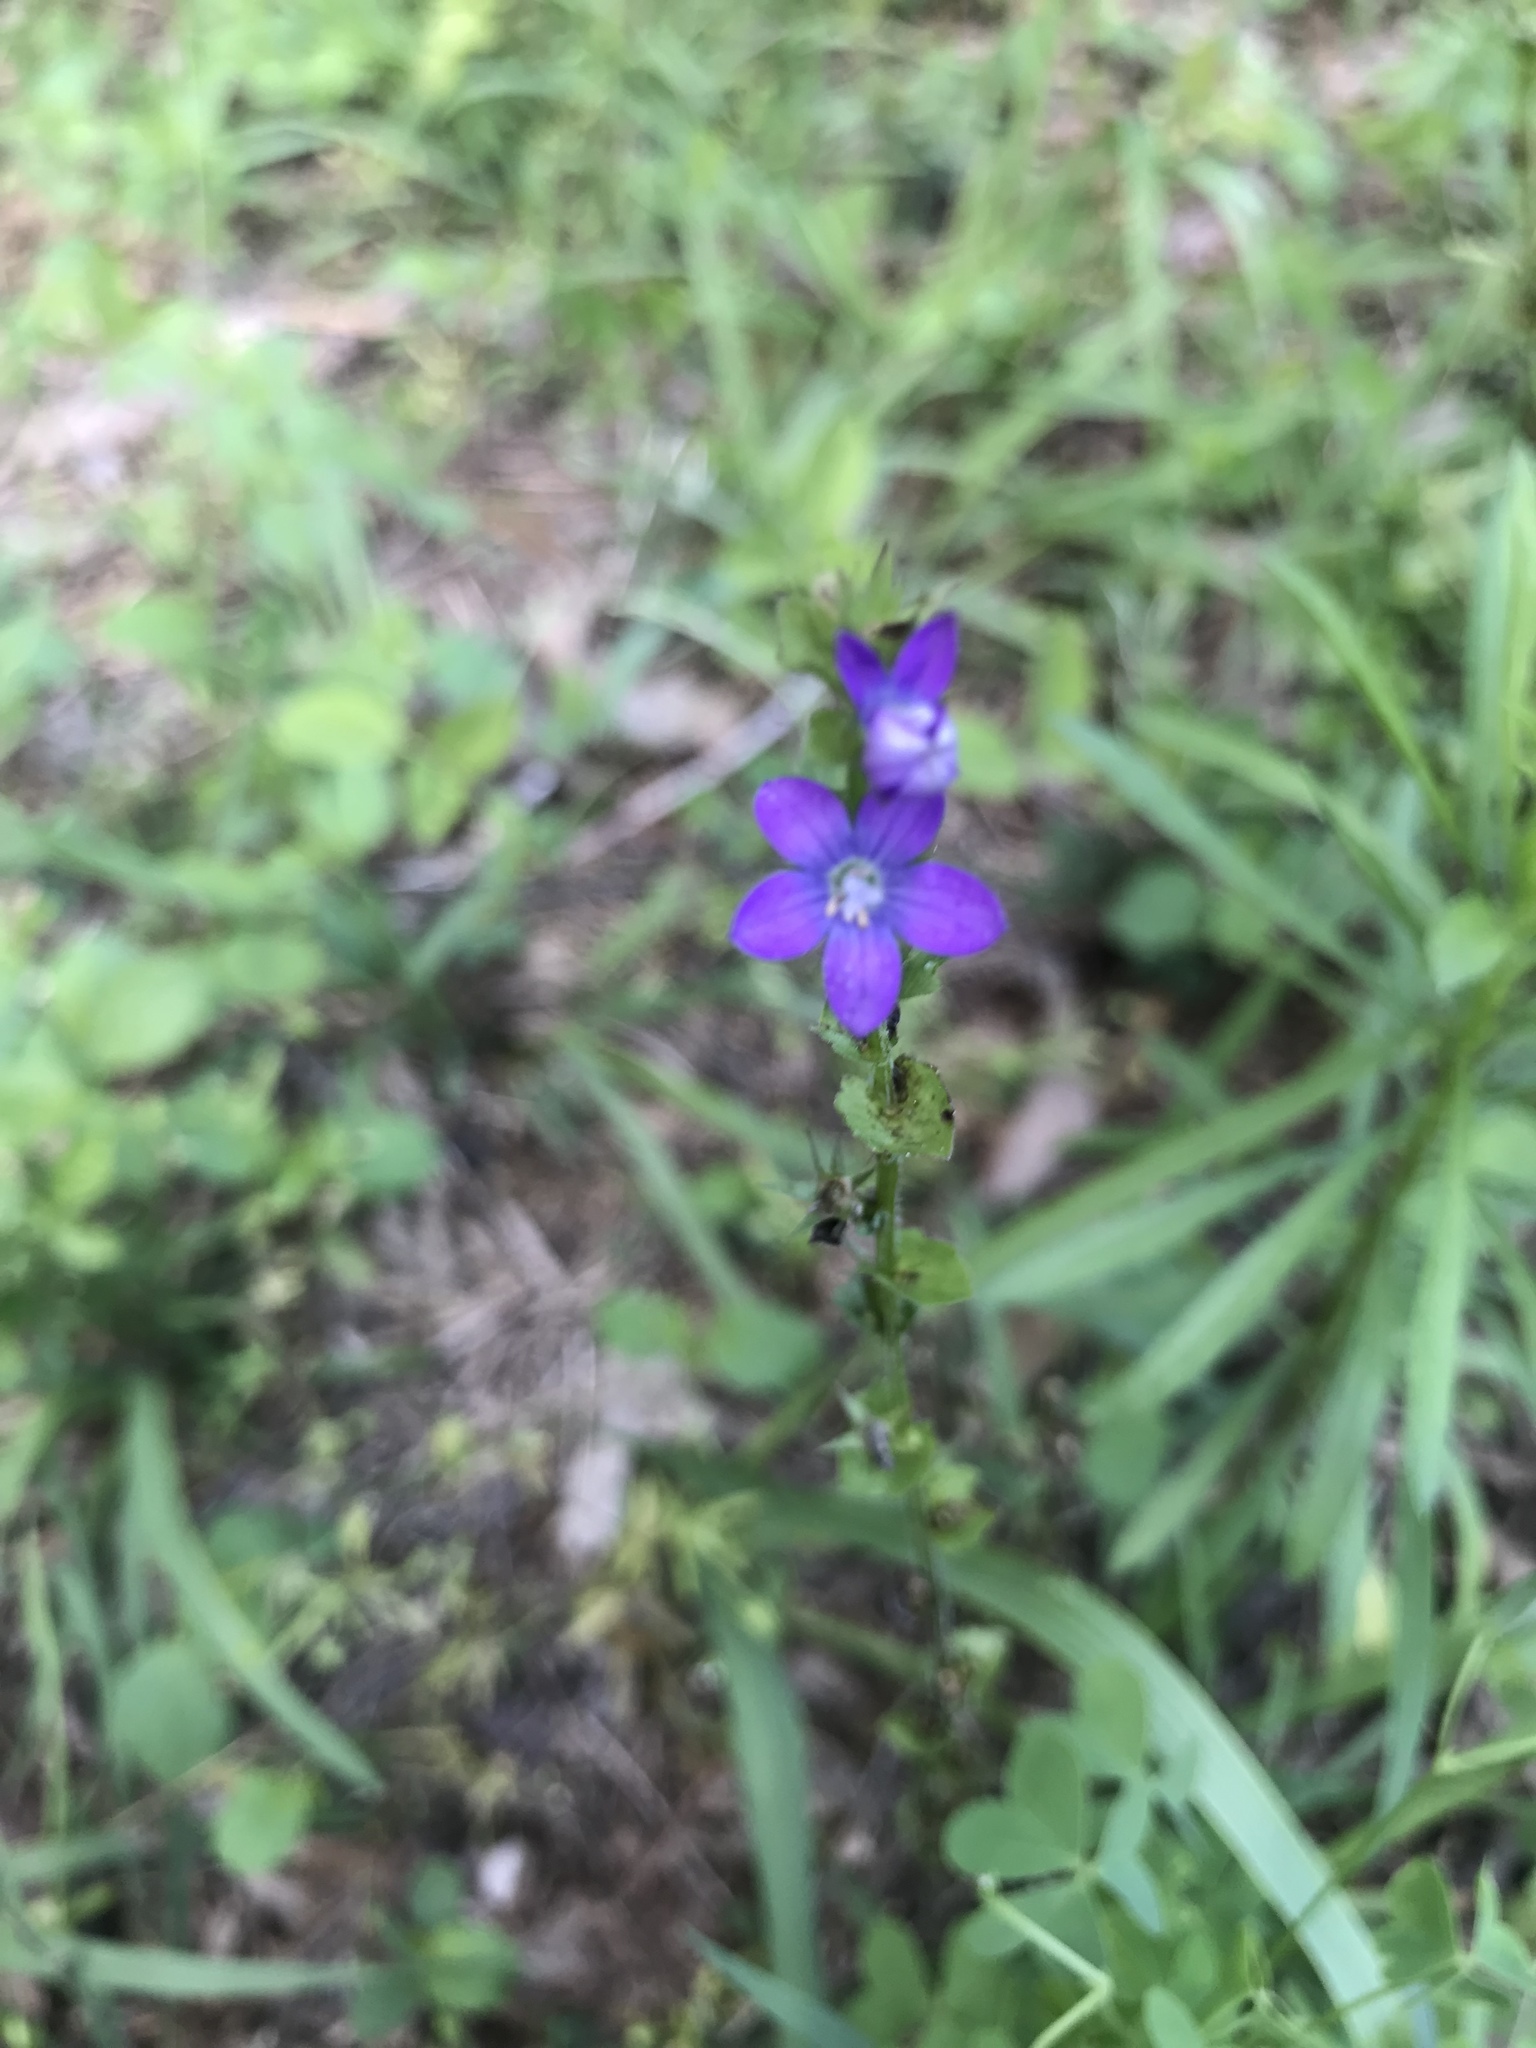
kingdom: Plantae
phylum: Tracheophyta
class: Magnoliopsida
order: Asterales
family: Campanulaceae
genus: Triodanis
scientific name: Triodanis perfoliata
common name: Clasping venus' looking-glass
